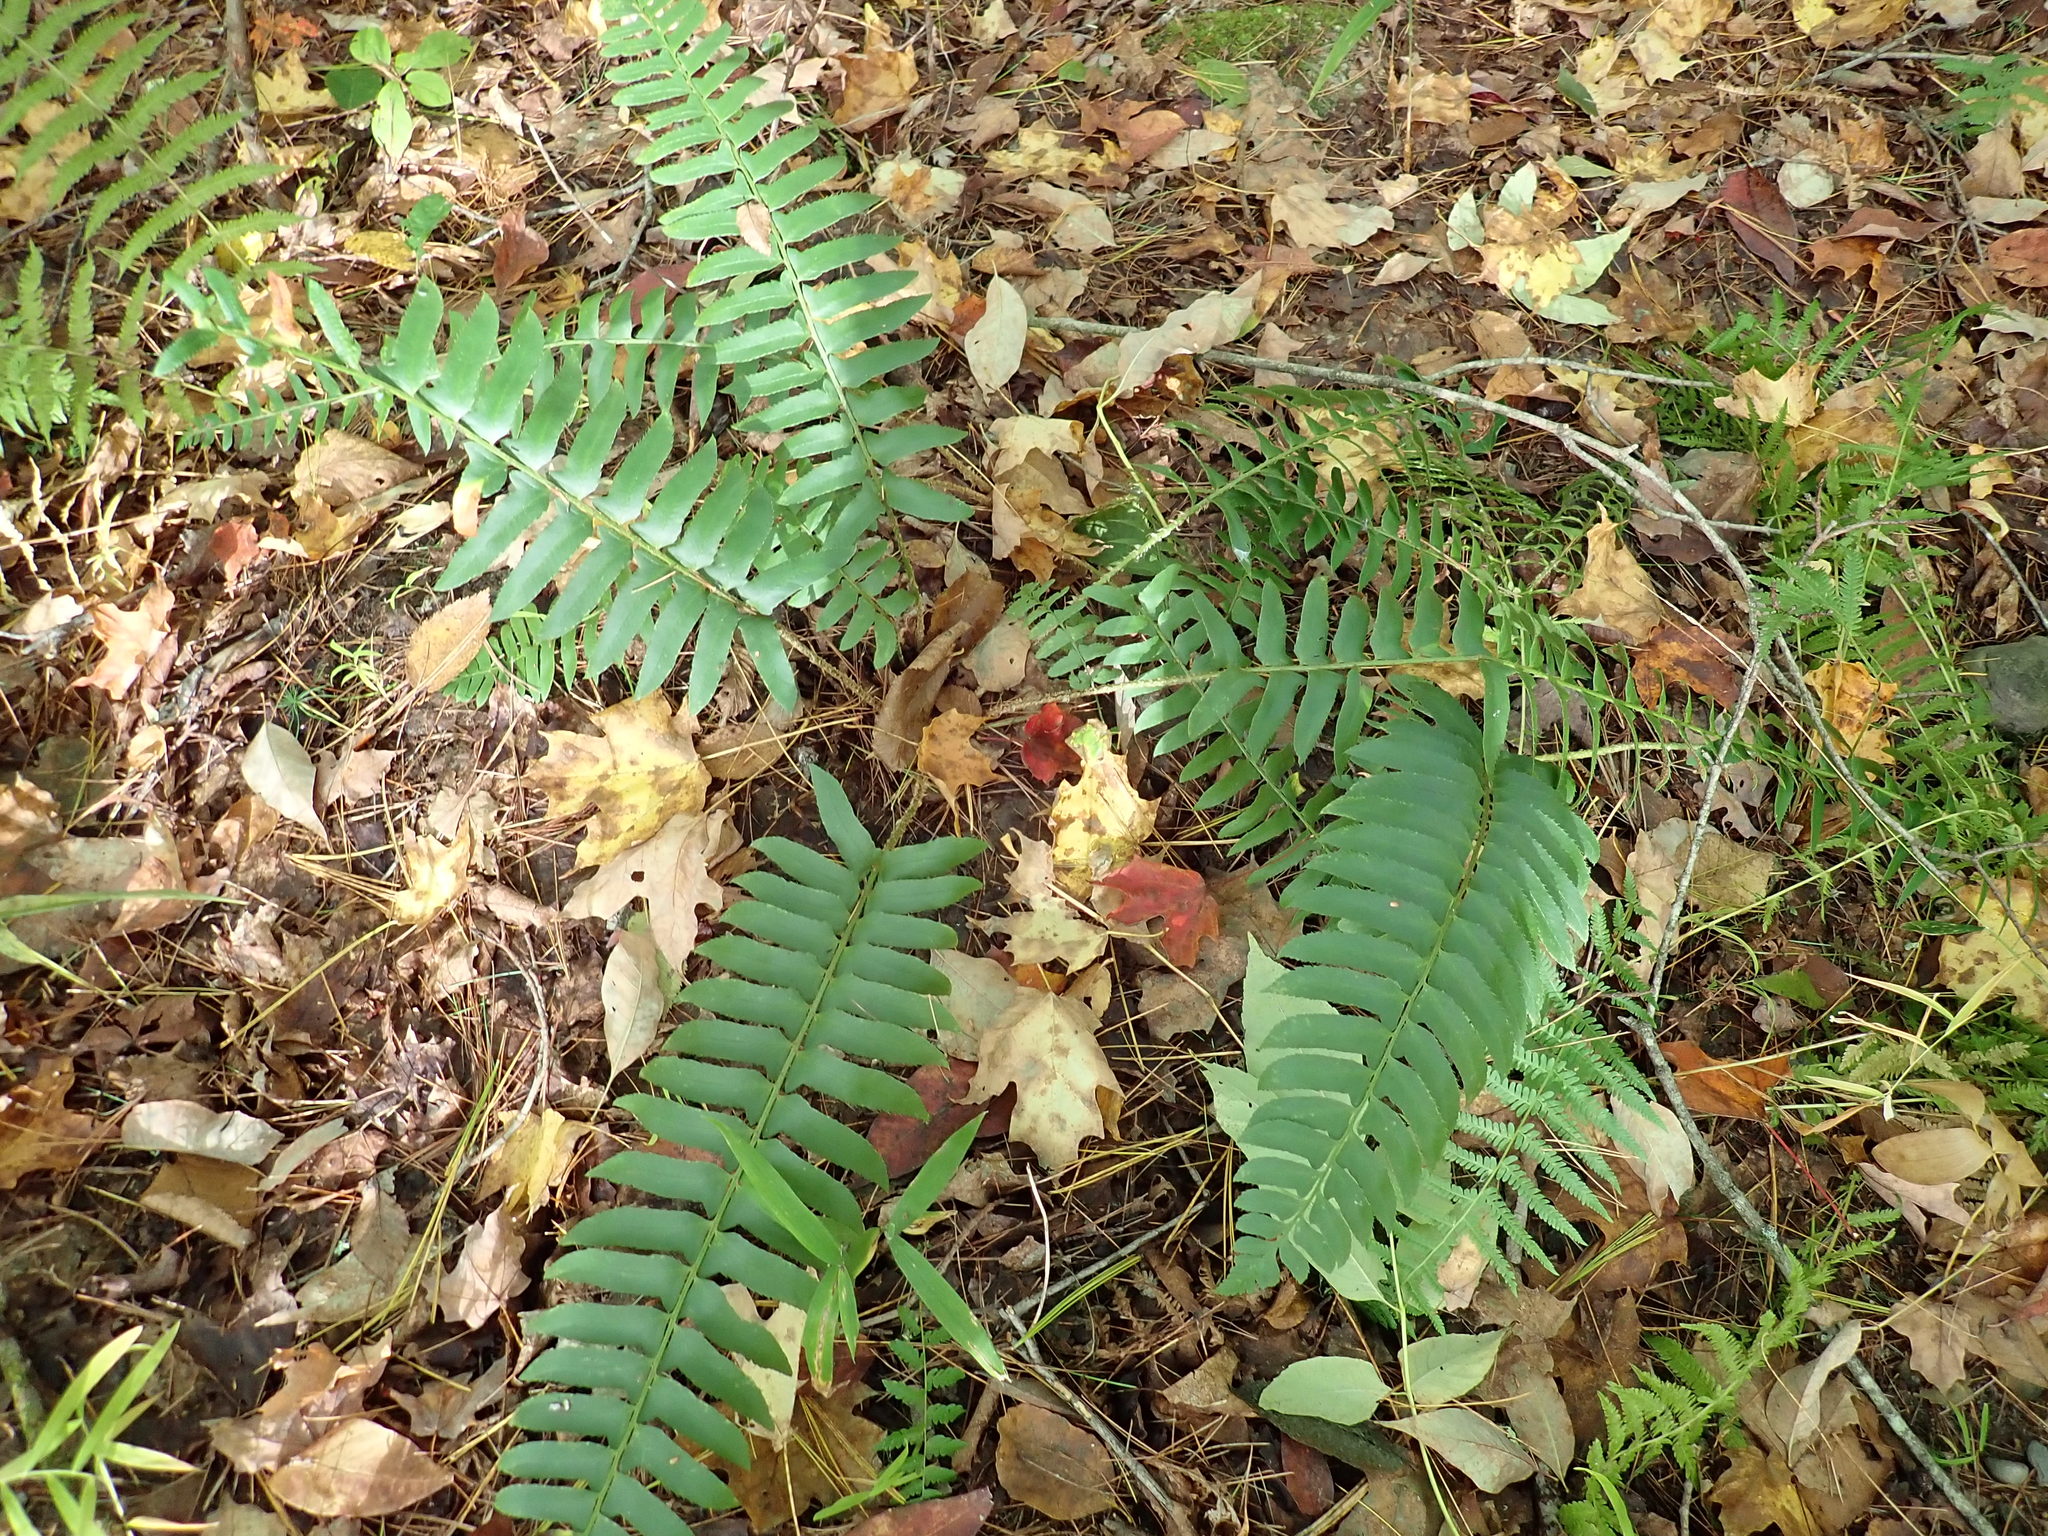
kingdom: Plantae
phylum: Tracheophyta
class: Polypodiopsida
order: Polypodiales
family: Dryopteridaceae
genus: Polystichum
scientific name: Polystichum acrostichoides
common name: Christmas fern
